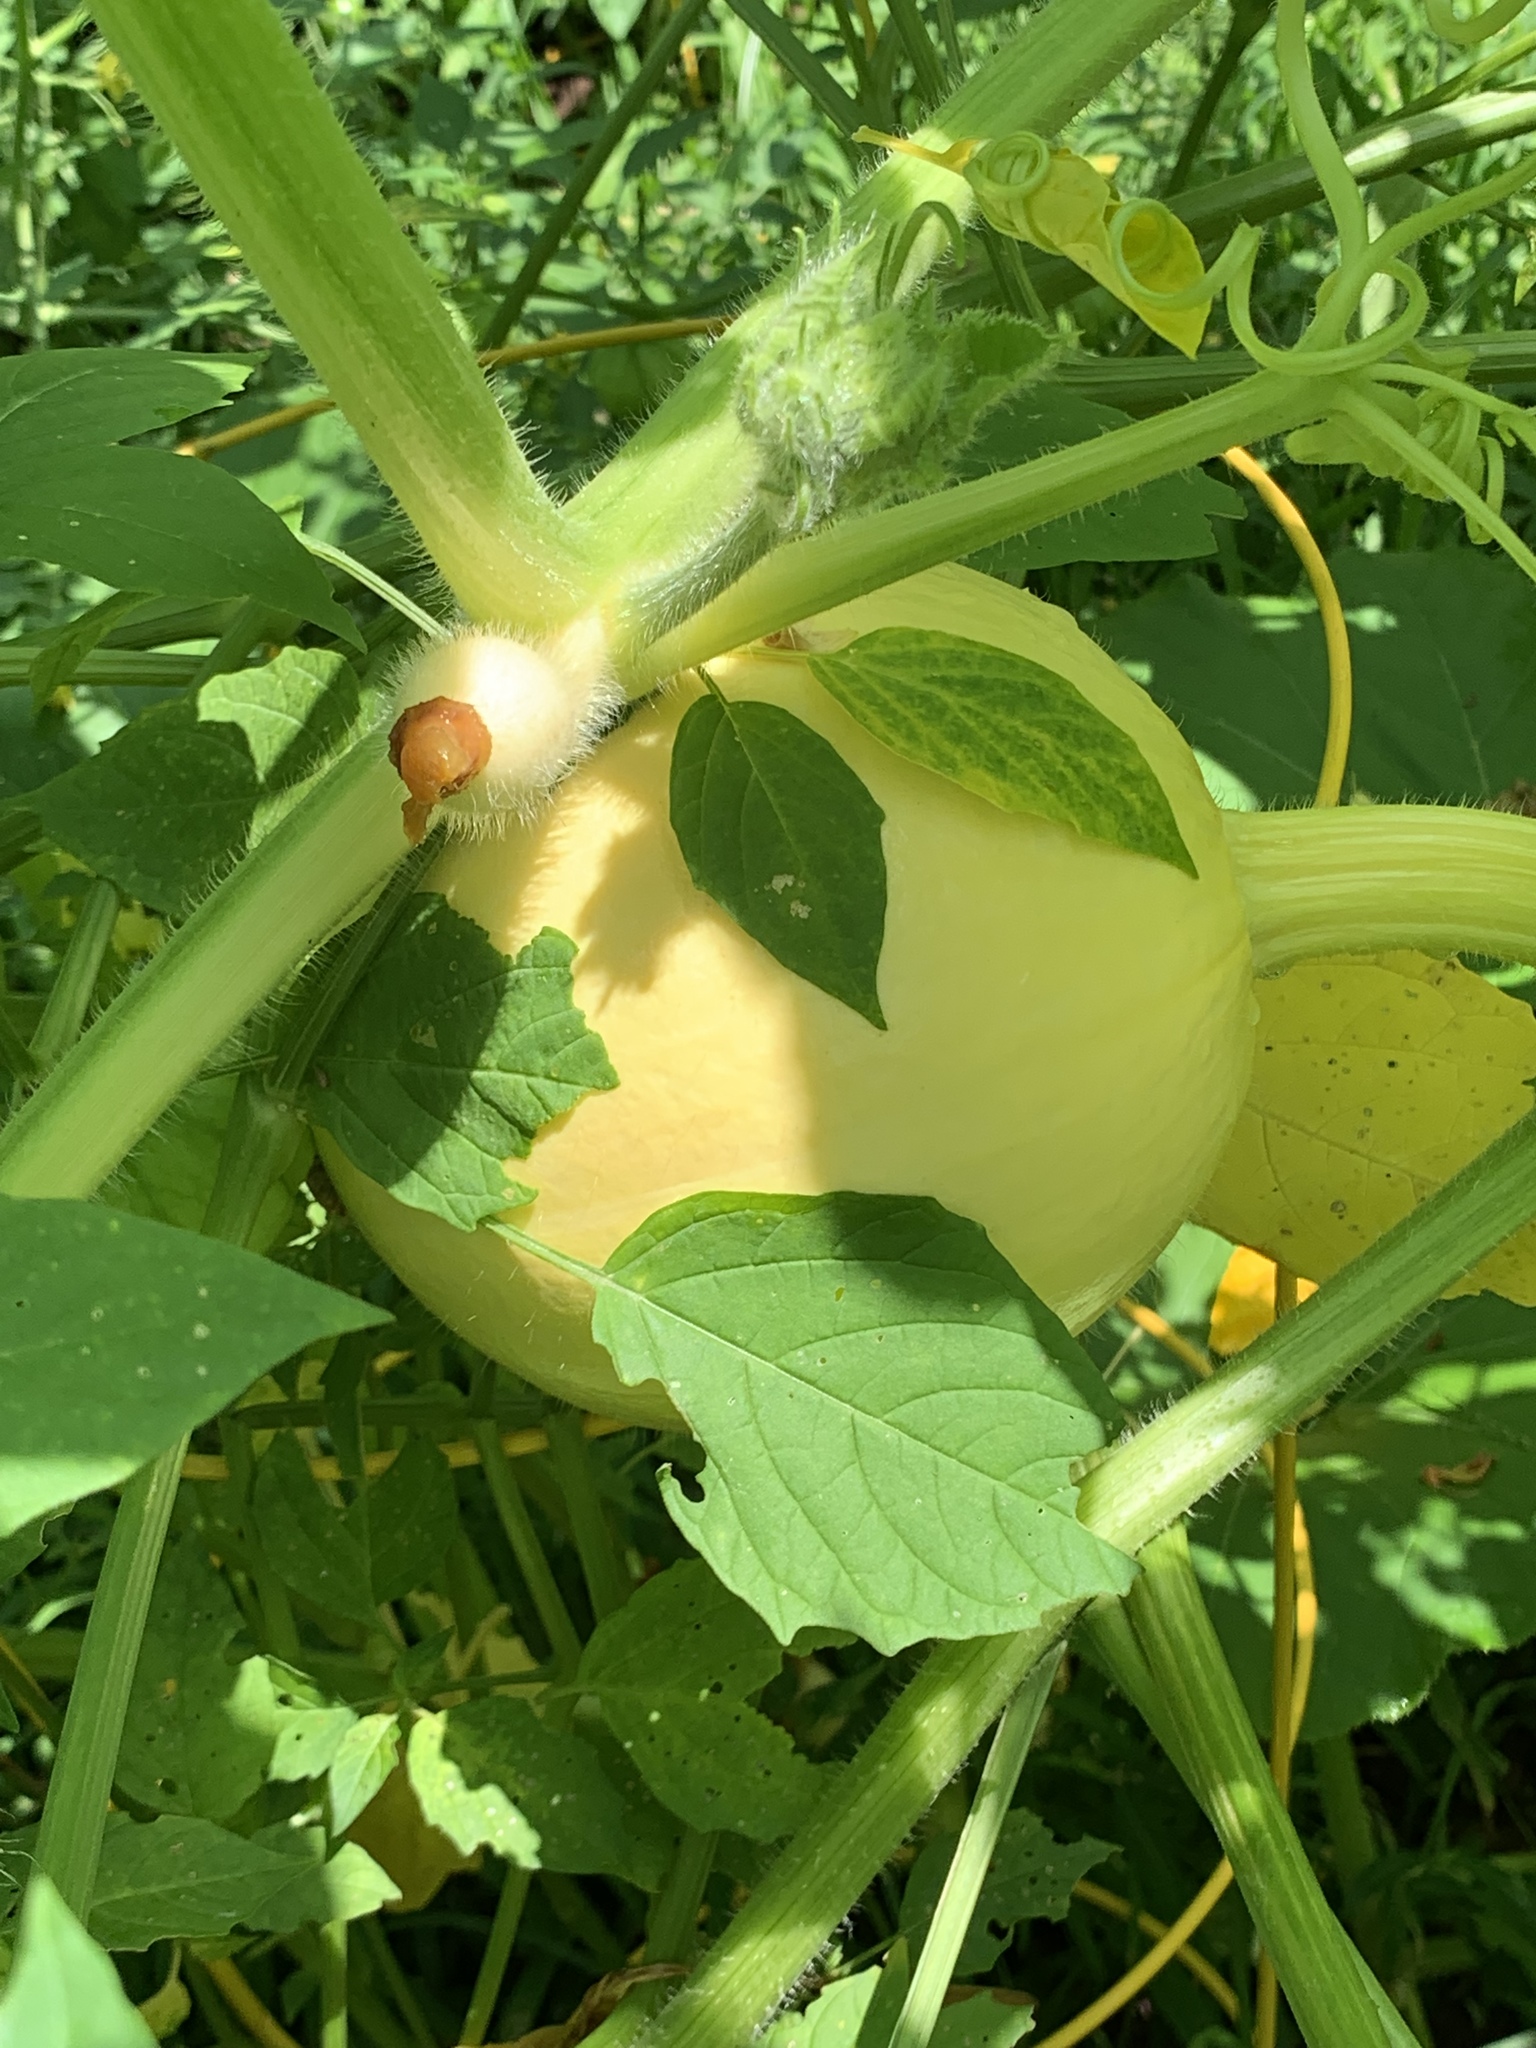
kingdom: Plantae
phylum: Tracheophyta
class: Magnoliopsida
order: Cucurbitales
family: Cucurbitaceae
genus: Cucurbita
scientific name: Cucurbita pepo
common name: Marrow
